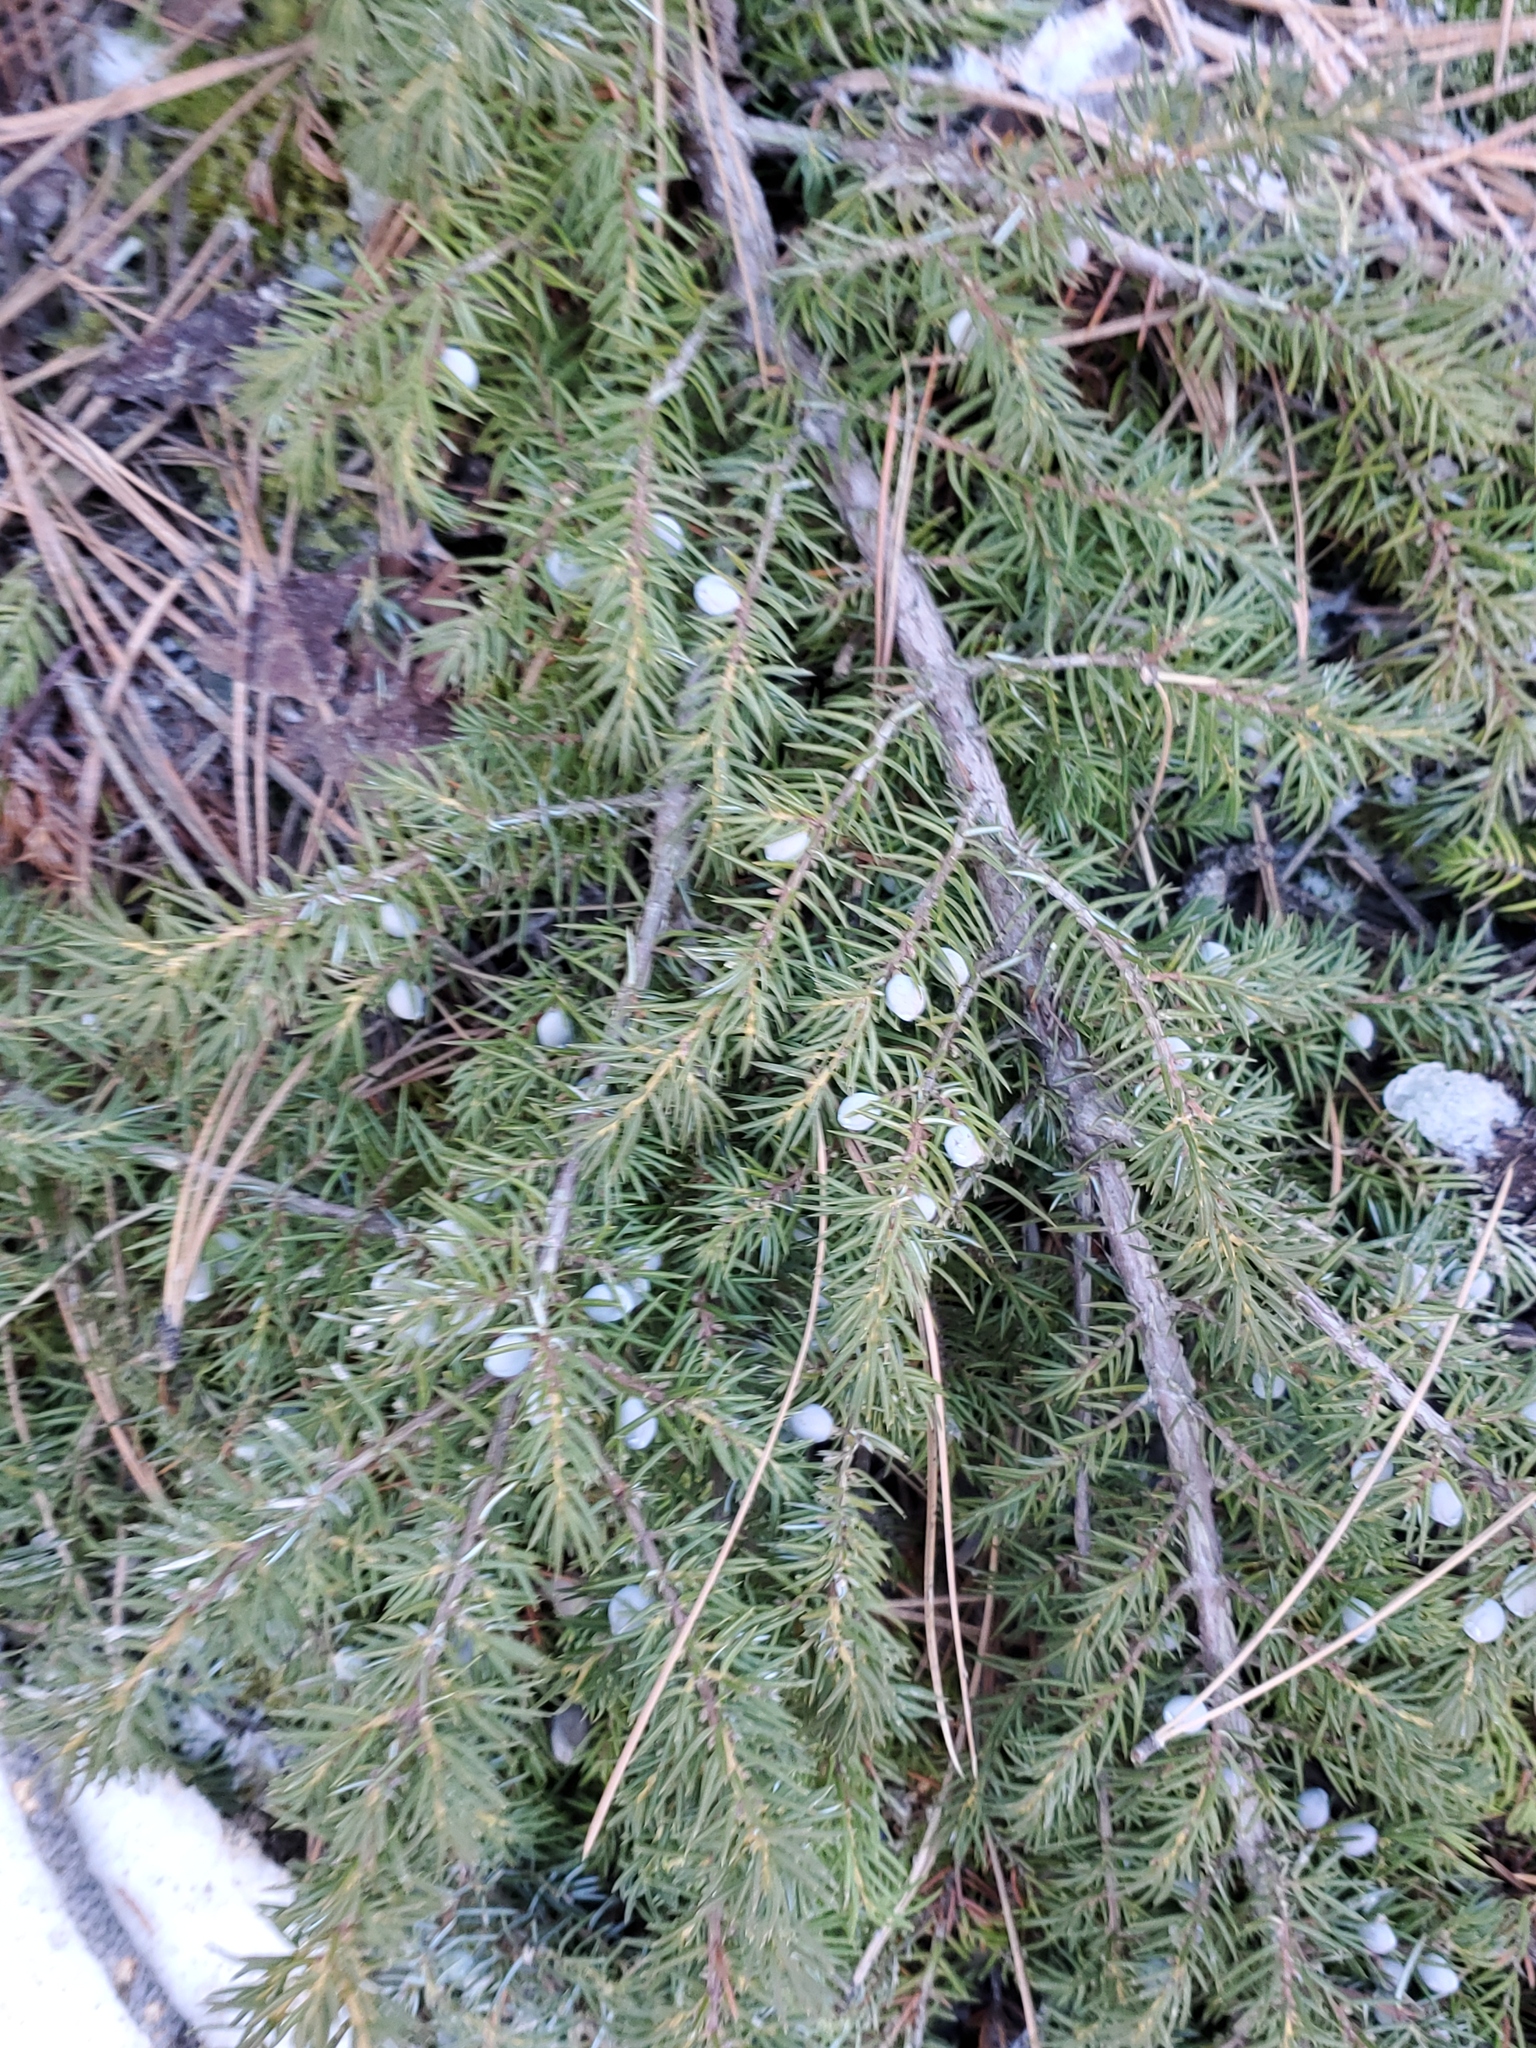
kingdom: Plantae
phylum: Tracheophyta
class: Pinopsida
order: Pinales
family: Cupressaceae
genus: Juniperus
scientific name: Juniperus communis
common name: Common juniper
